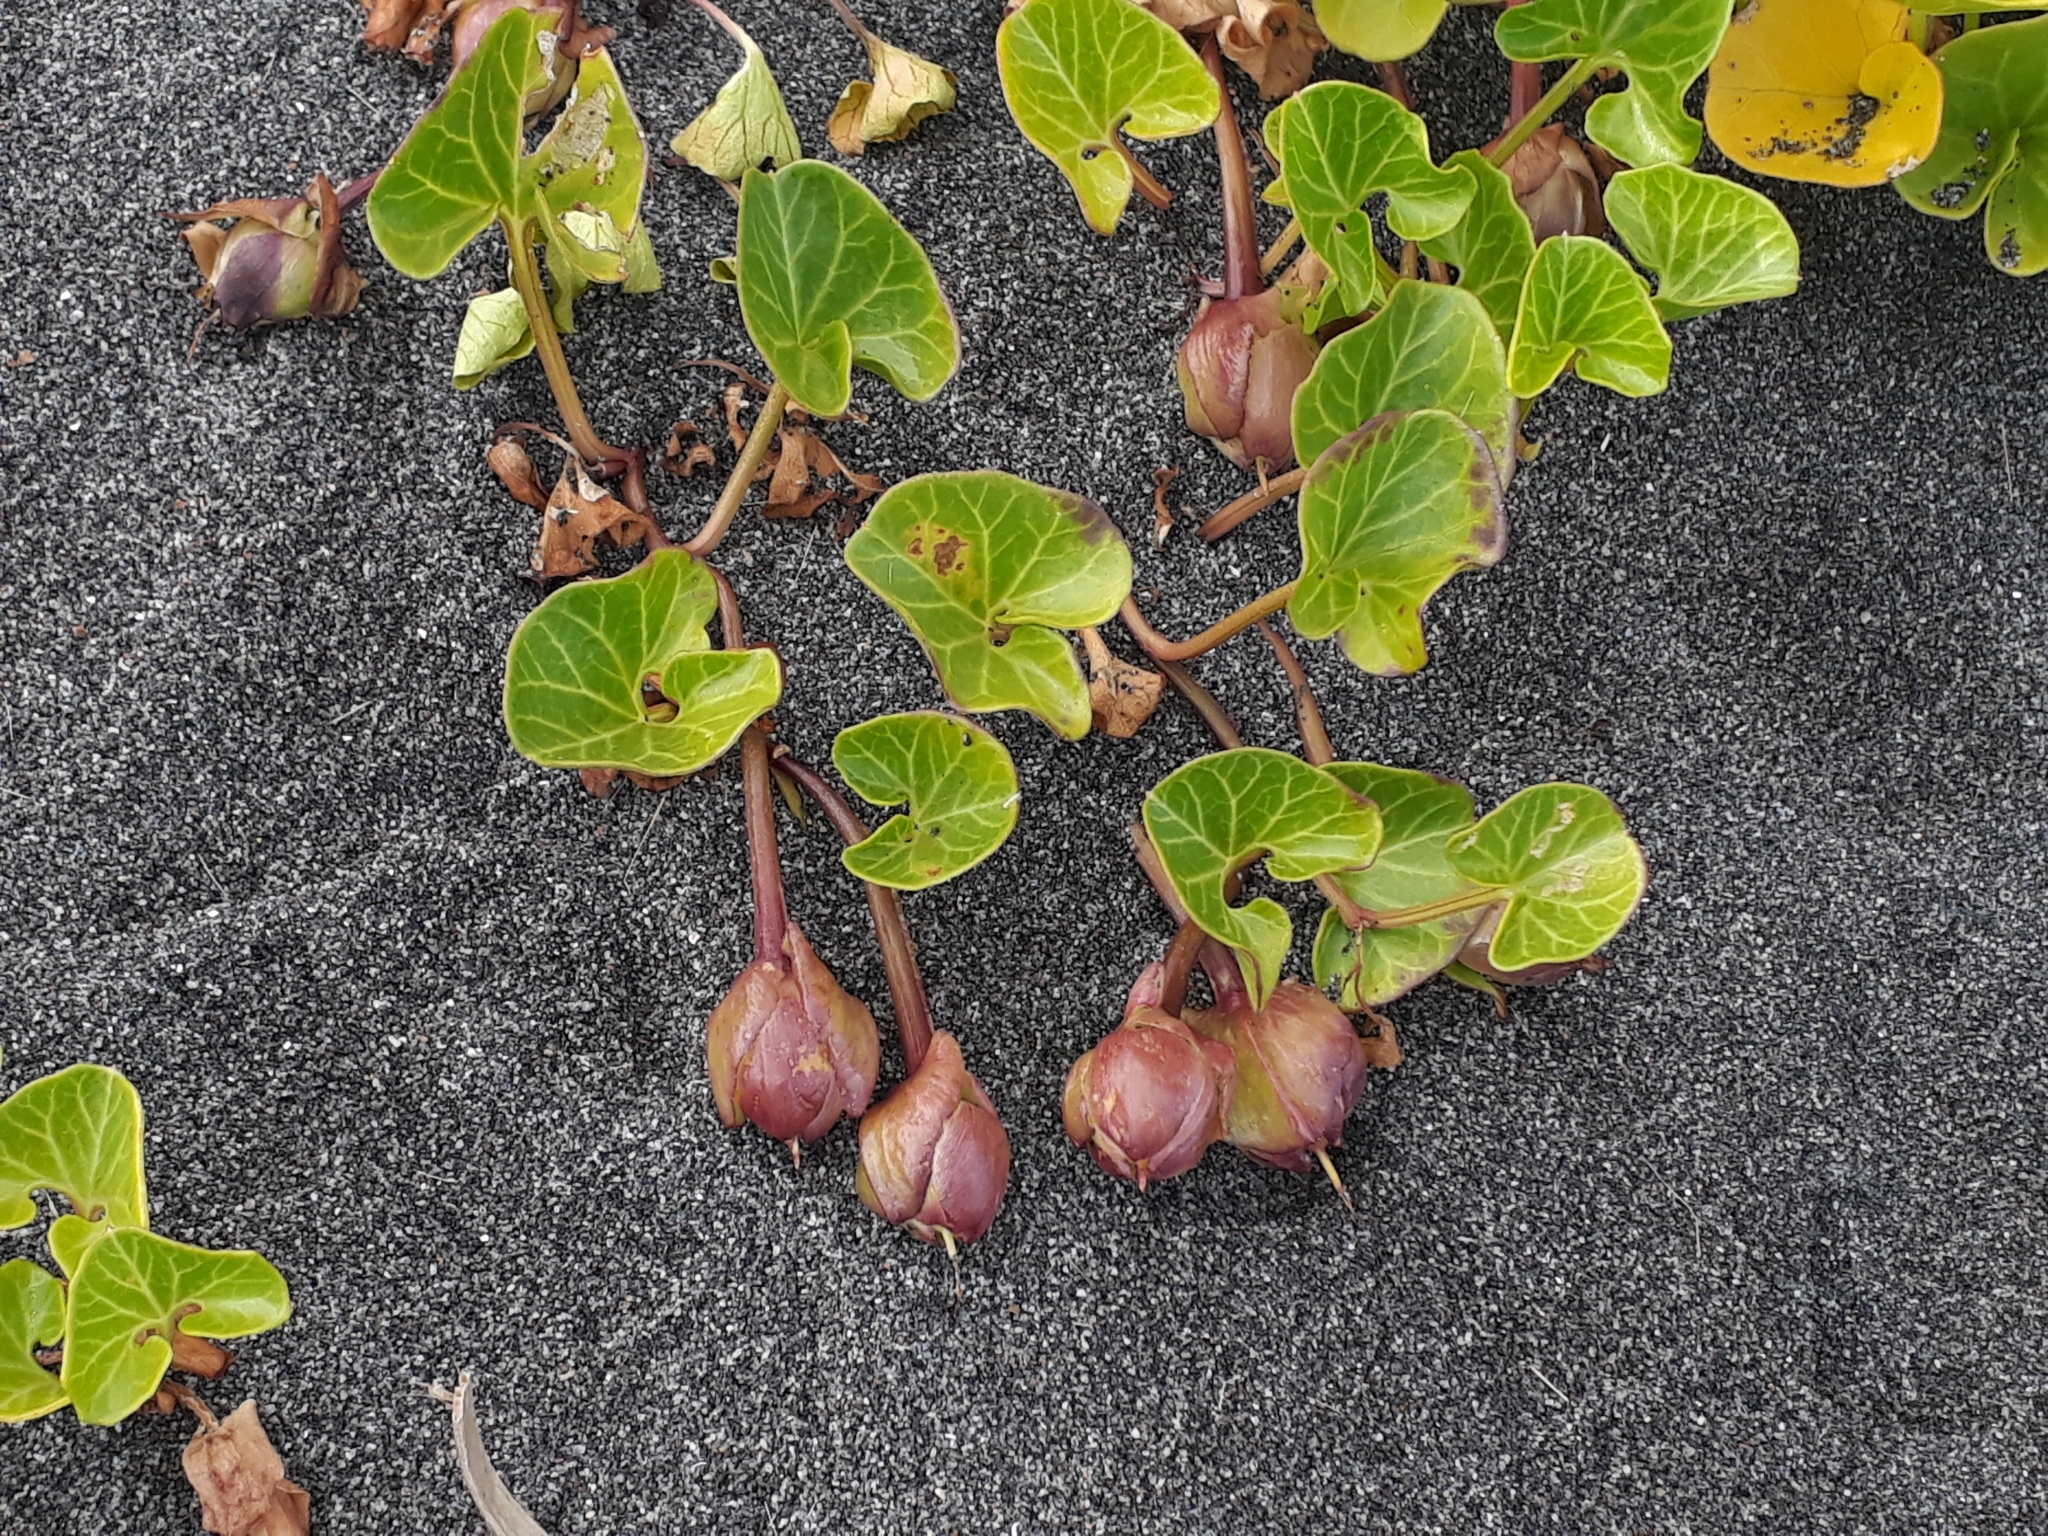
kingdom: Plantae
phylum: Tracheophyta
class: Magnoliopsida
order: Solanales
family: Convolvulaceae
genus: Calystegia
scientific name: Calystegia soldanella
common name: Sea bindweed
